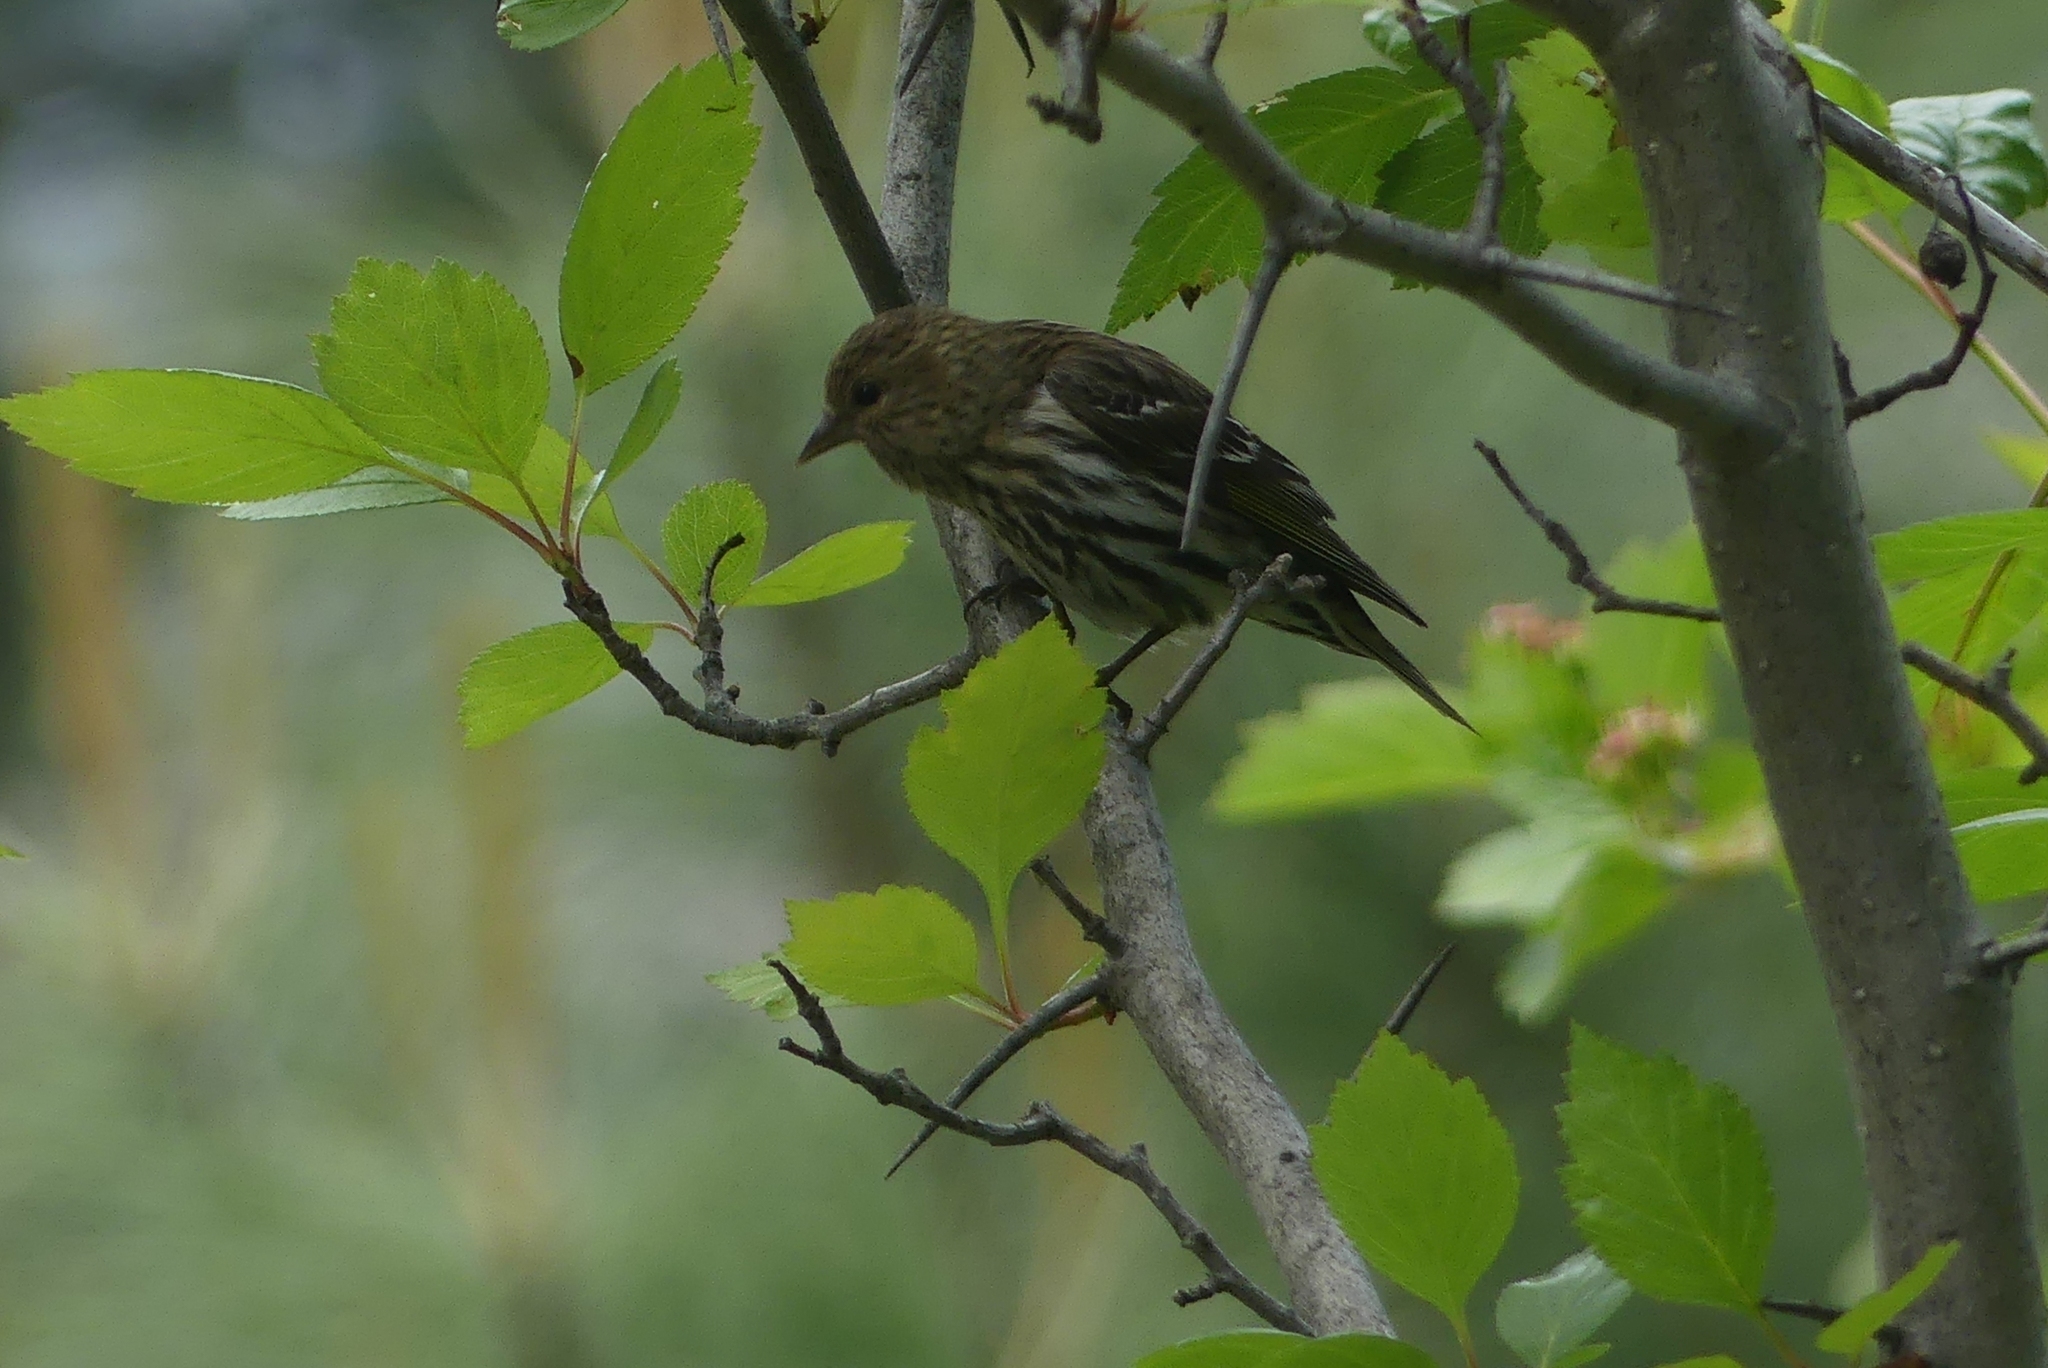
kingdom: Animalia
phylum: Chordata
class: Aves
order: Passeriformes
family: Fringillidae
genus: Spinus
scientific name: Spinus pinus
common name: Pine siskin
